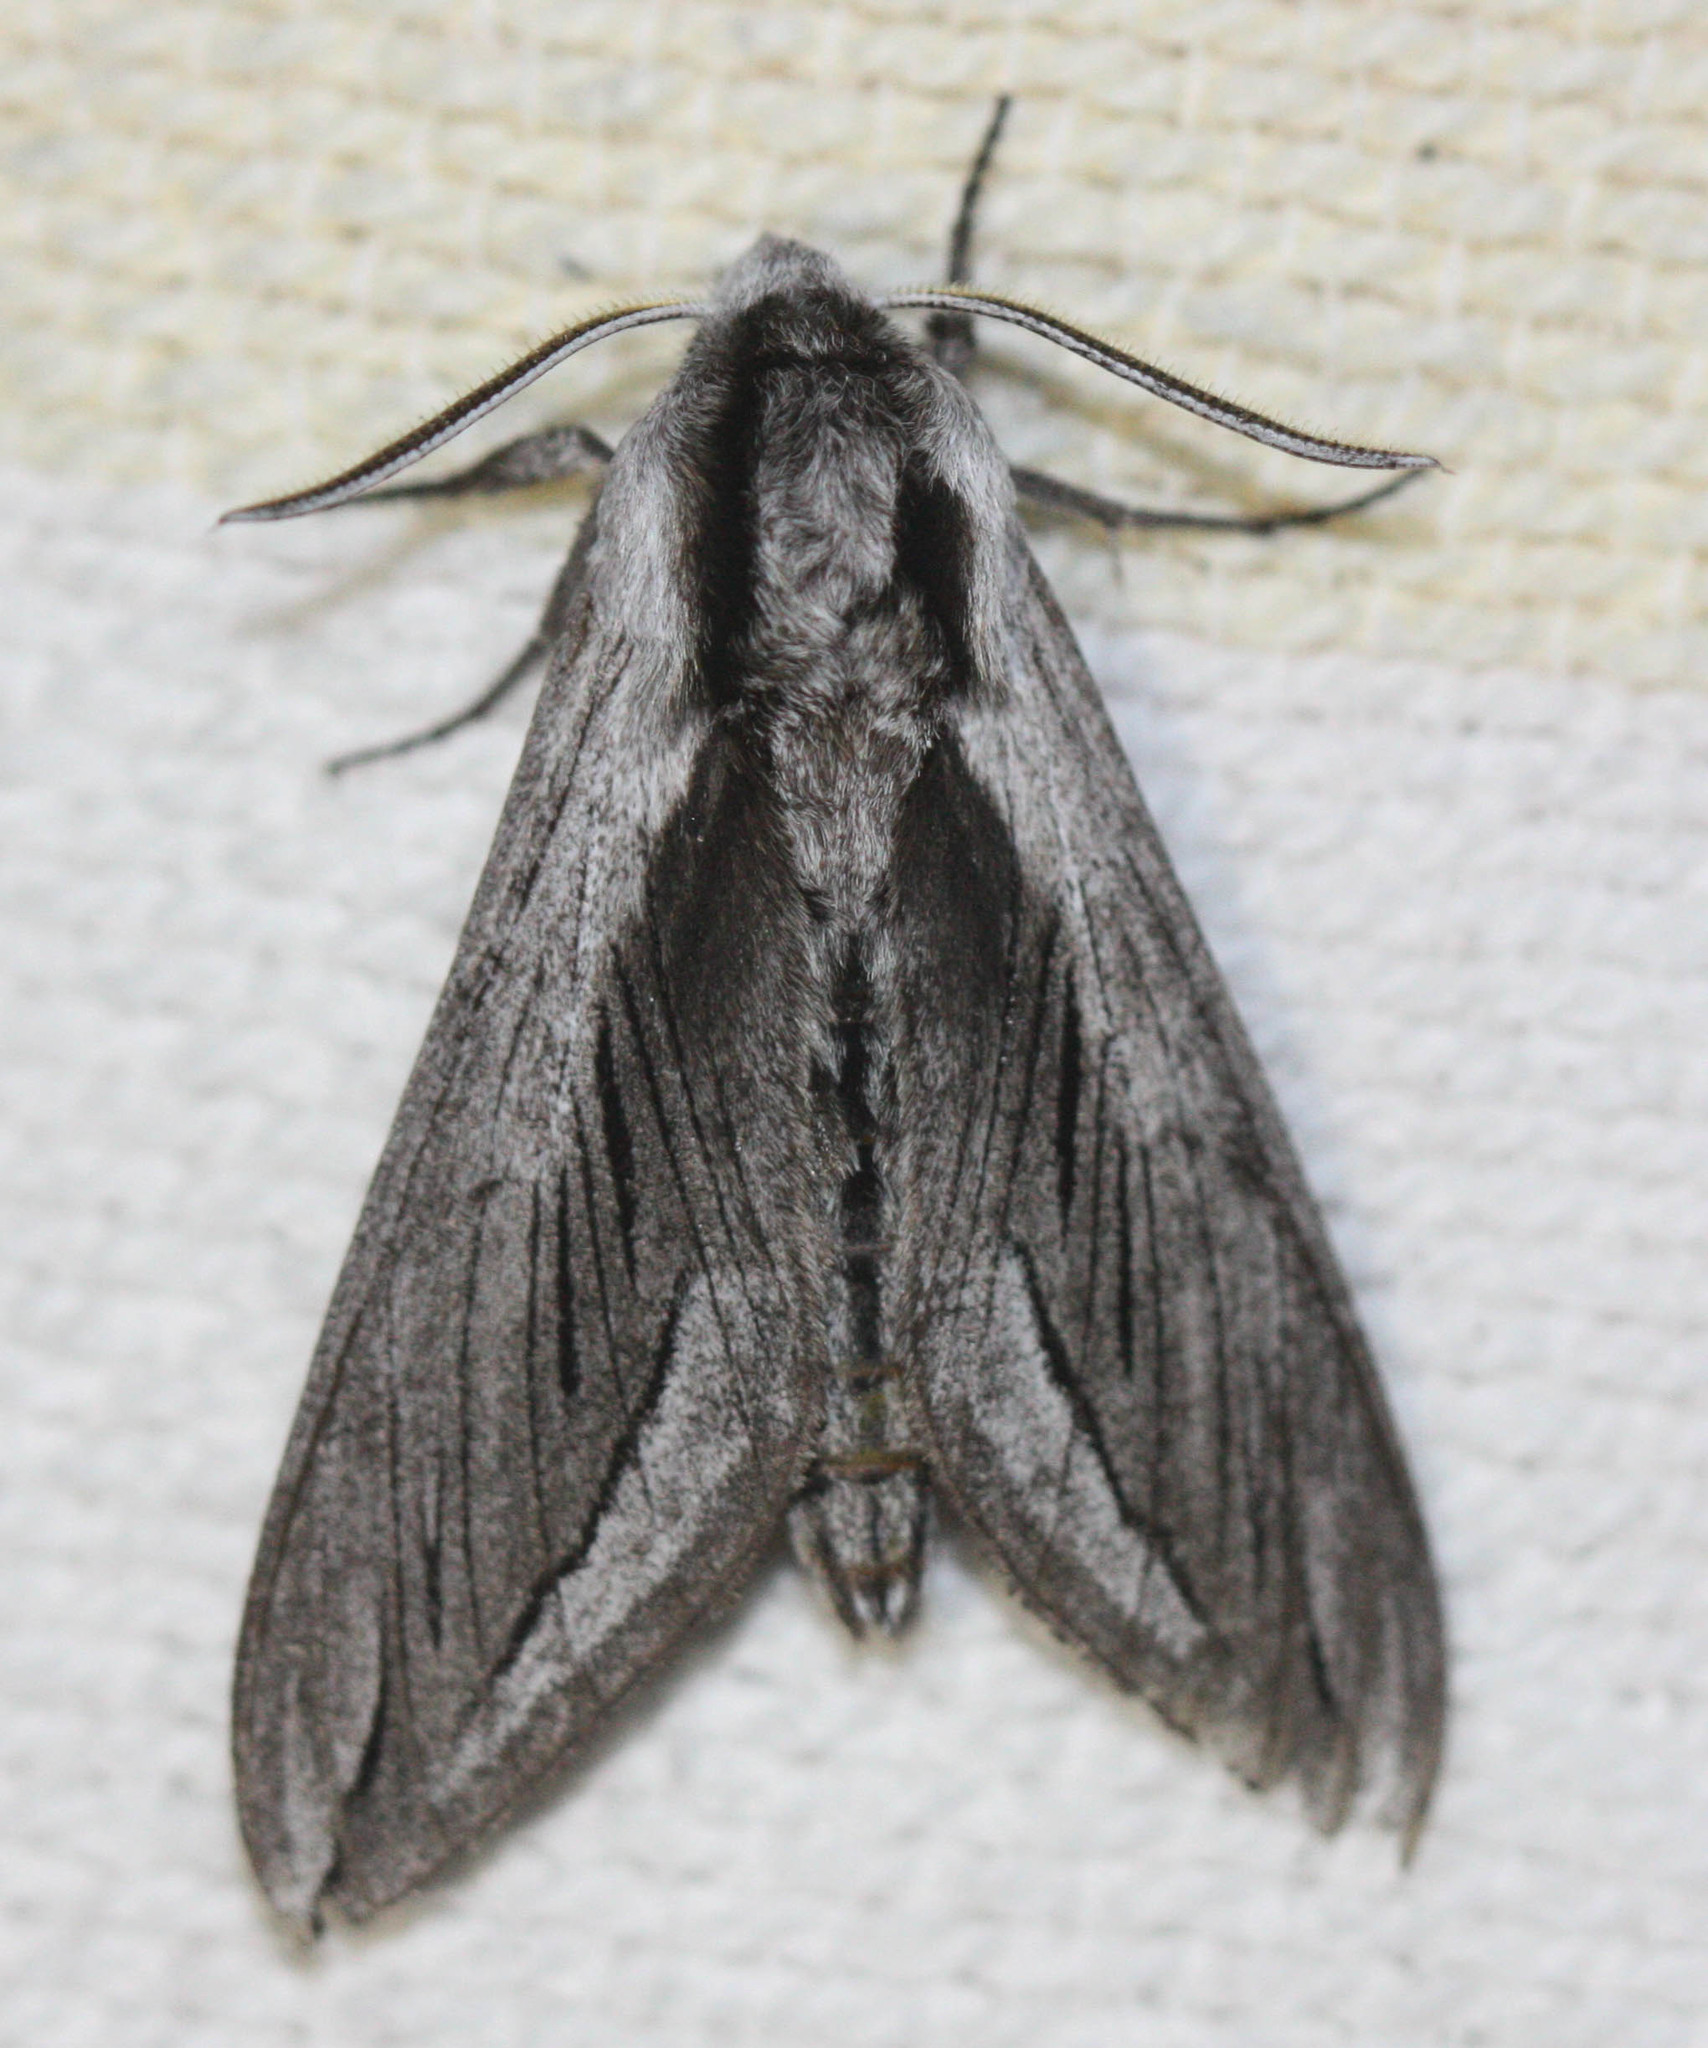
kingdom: Animalia
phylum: Arthropoda
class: Insecta
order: Lepidoptera
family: Sphingidae
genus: Sphinx
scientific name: Sphinx vashti
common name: Snowberry sphinx
